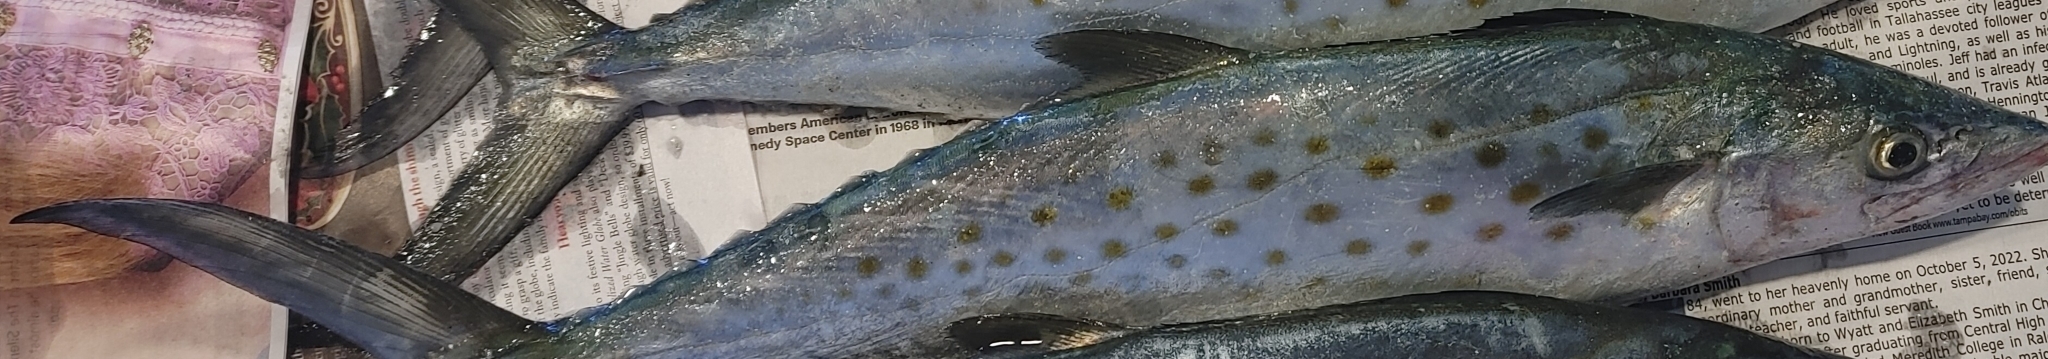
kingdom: Animalia
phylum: Chordata
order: Perciformes
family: Scombridae
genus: Scomberomorus
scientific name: Scomberomorus maculatus
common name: Spanish mackerel
